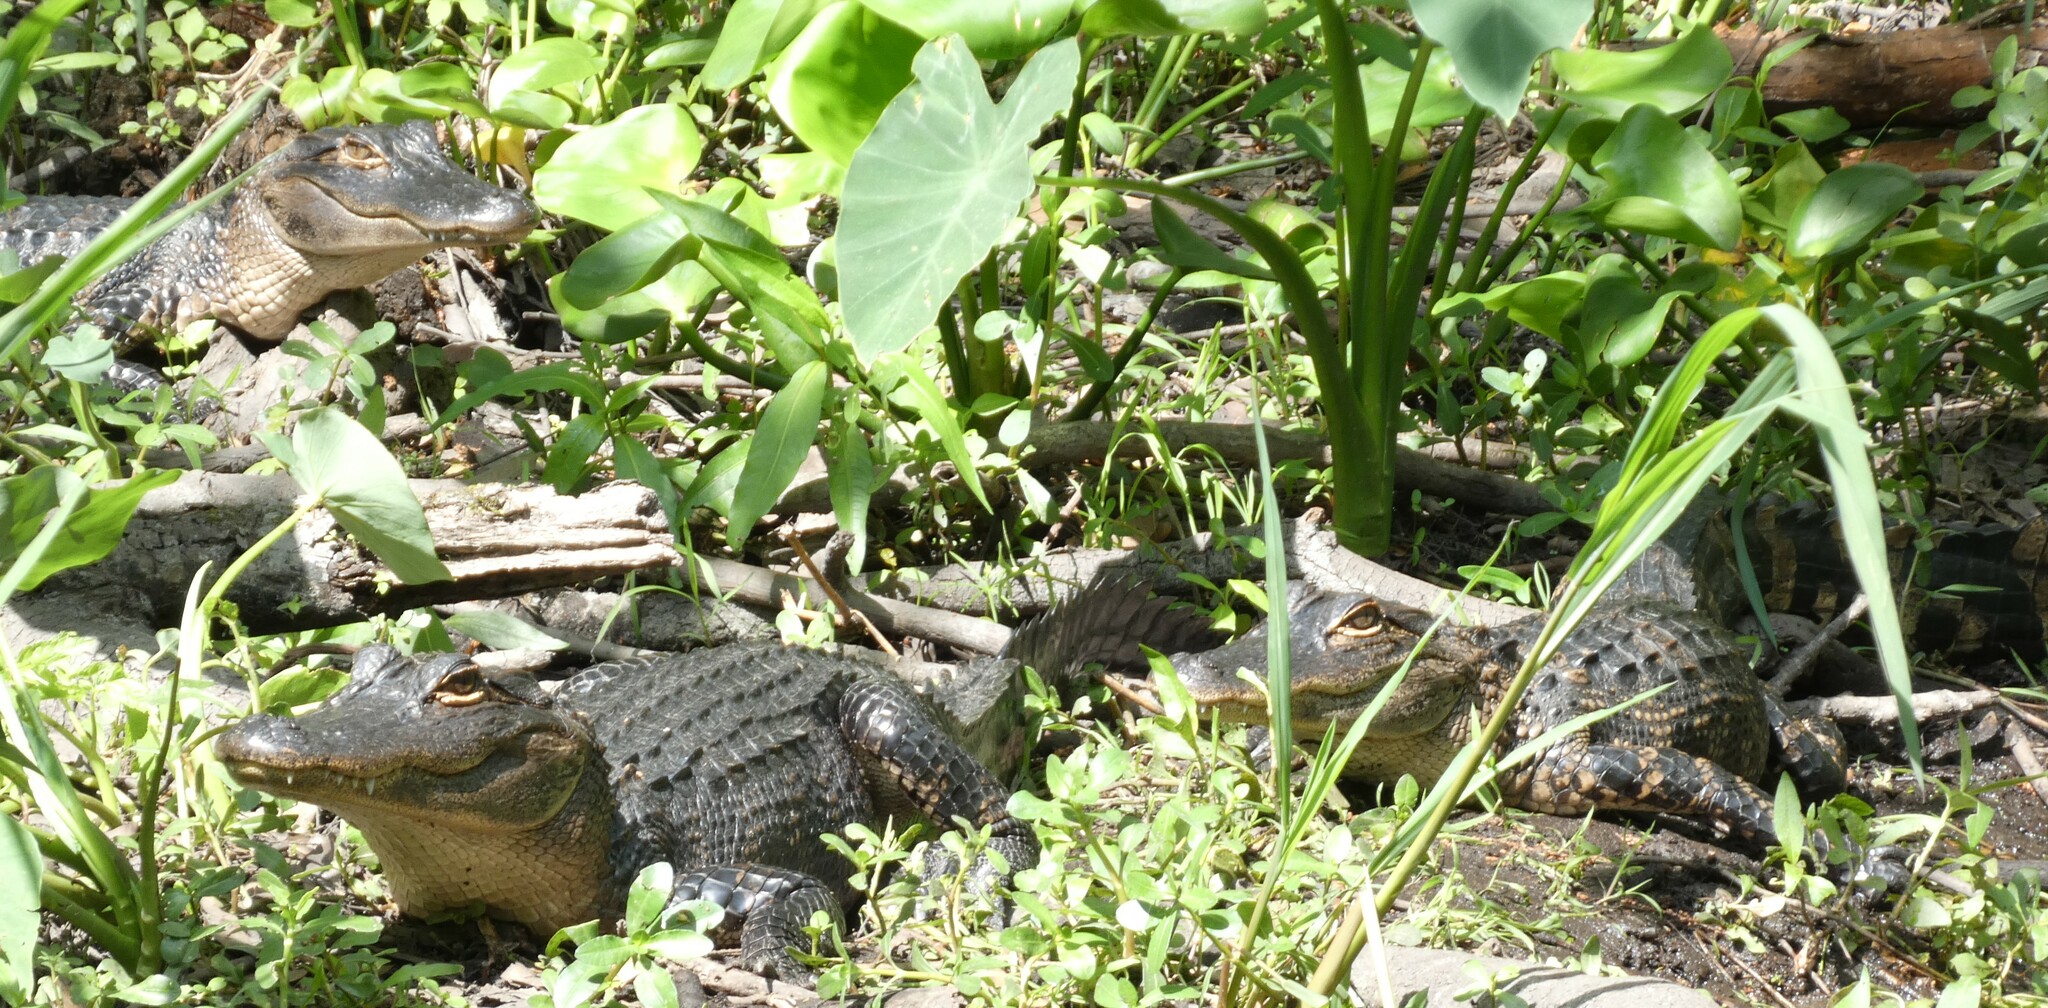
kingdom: Animalia
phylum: Chordata
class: Crocodylia
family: Alligatoridae
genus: Alligator
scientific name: Alligator mississippiensis
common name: American alligator
